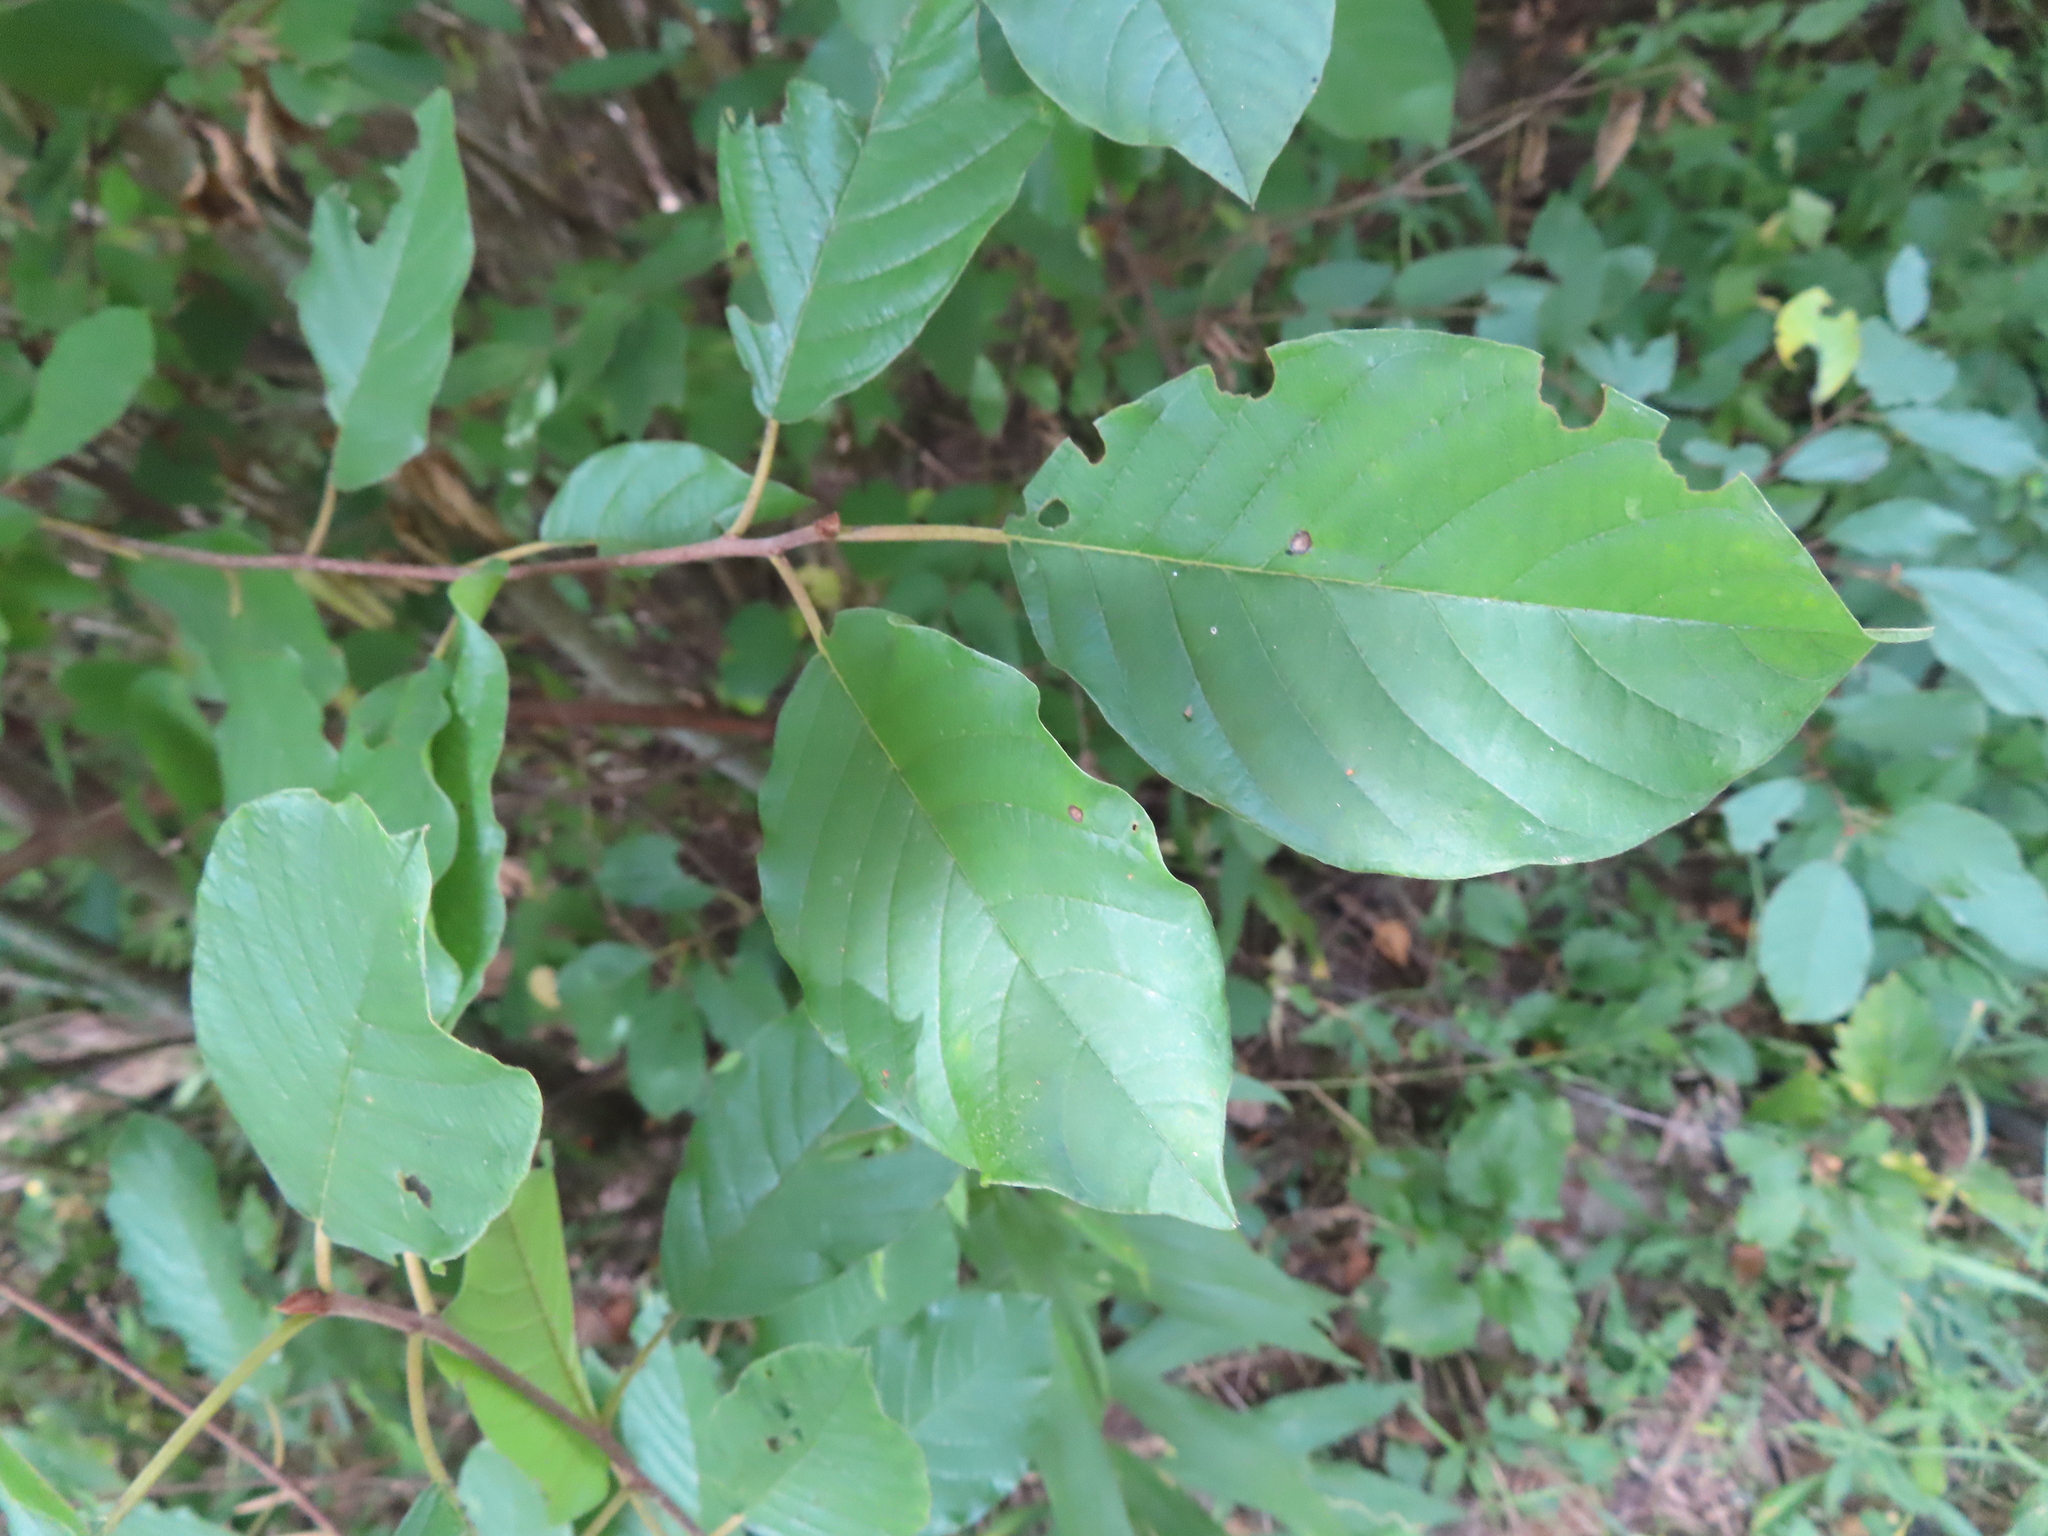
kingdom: Plantae
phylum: Tracheophyta
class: Magnoliopsida
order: Rosales
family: Rhamnaceae
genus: Rhamnus
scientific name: Rhamnus cathartica
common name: Common buckthorn
